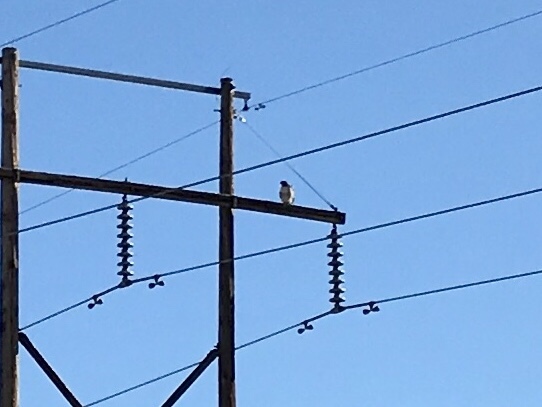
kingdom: Animalia
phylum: Chordata
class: Aves
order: Accipitriformes
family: Accipitridae
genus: Buteo
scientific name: Buteo jamaicensis
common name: Red-tailed hawk
